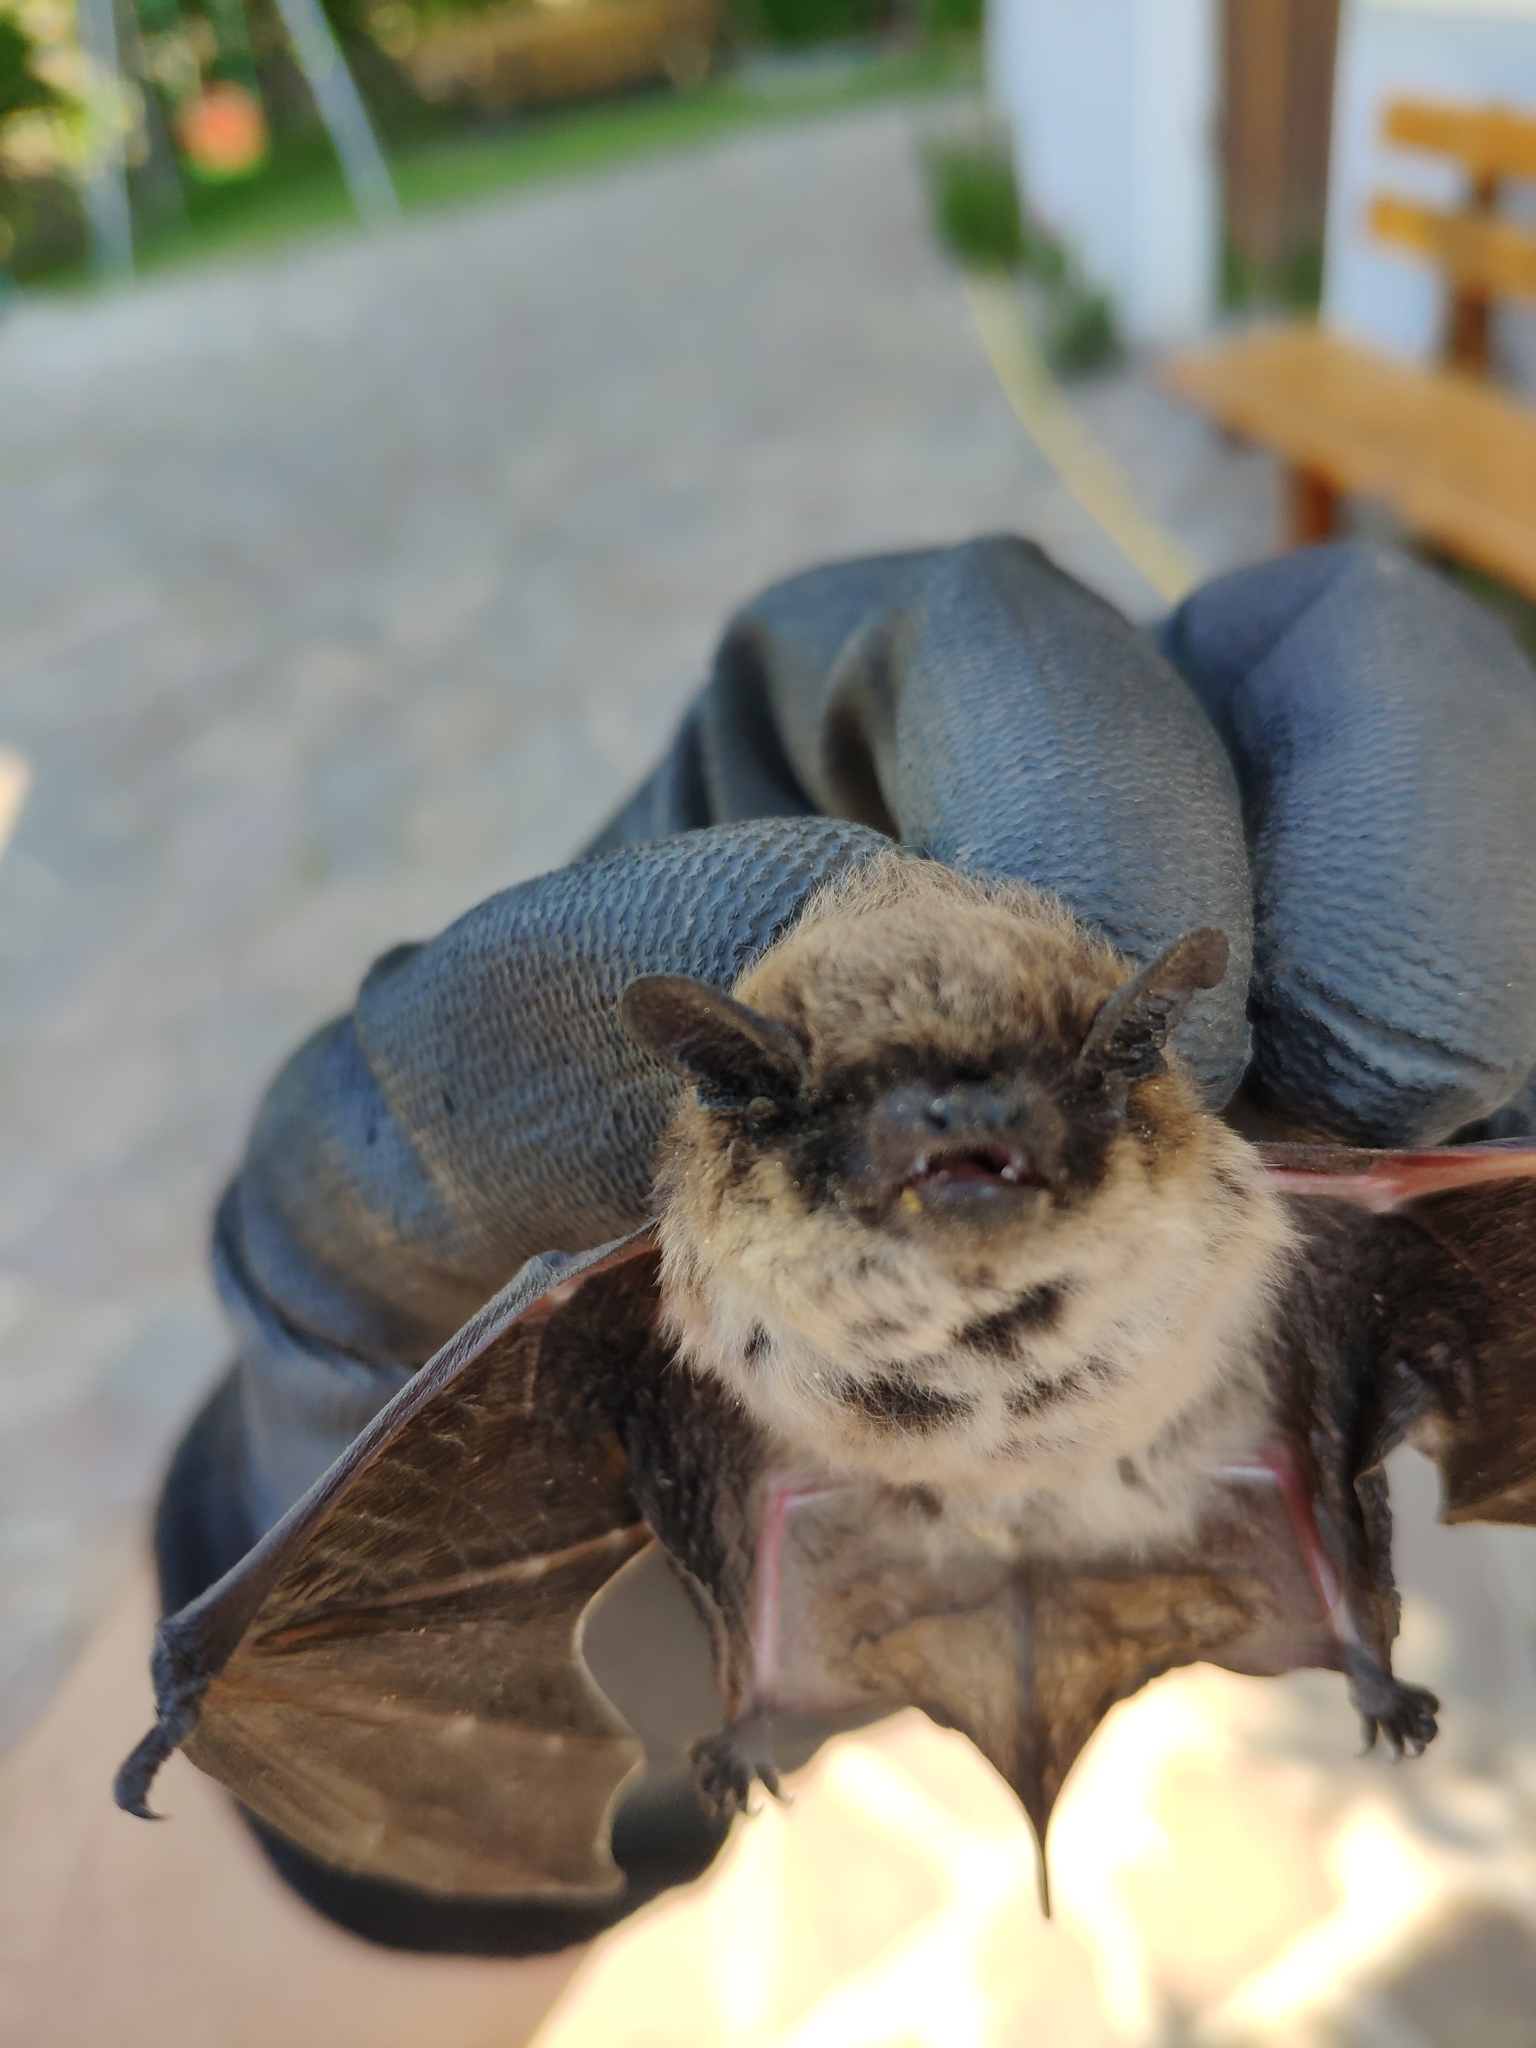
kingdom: Animalia
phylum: Chordata
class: Mammalia
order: Chiroptera
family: Vespertilionidae
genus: Hypsugo
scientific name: Hypsugo savii
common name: Savi's pipistrelle
